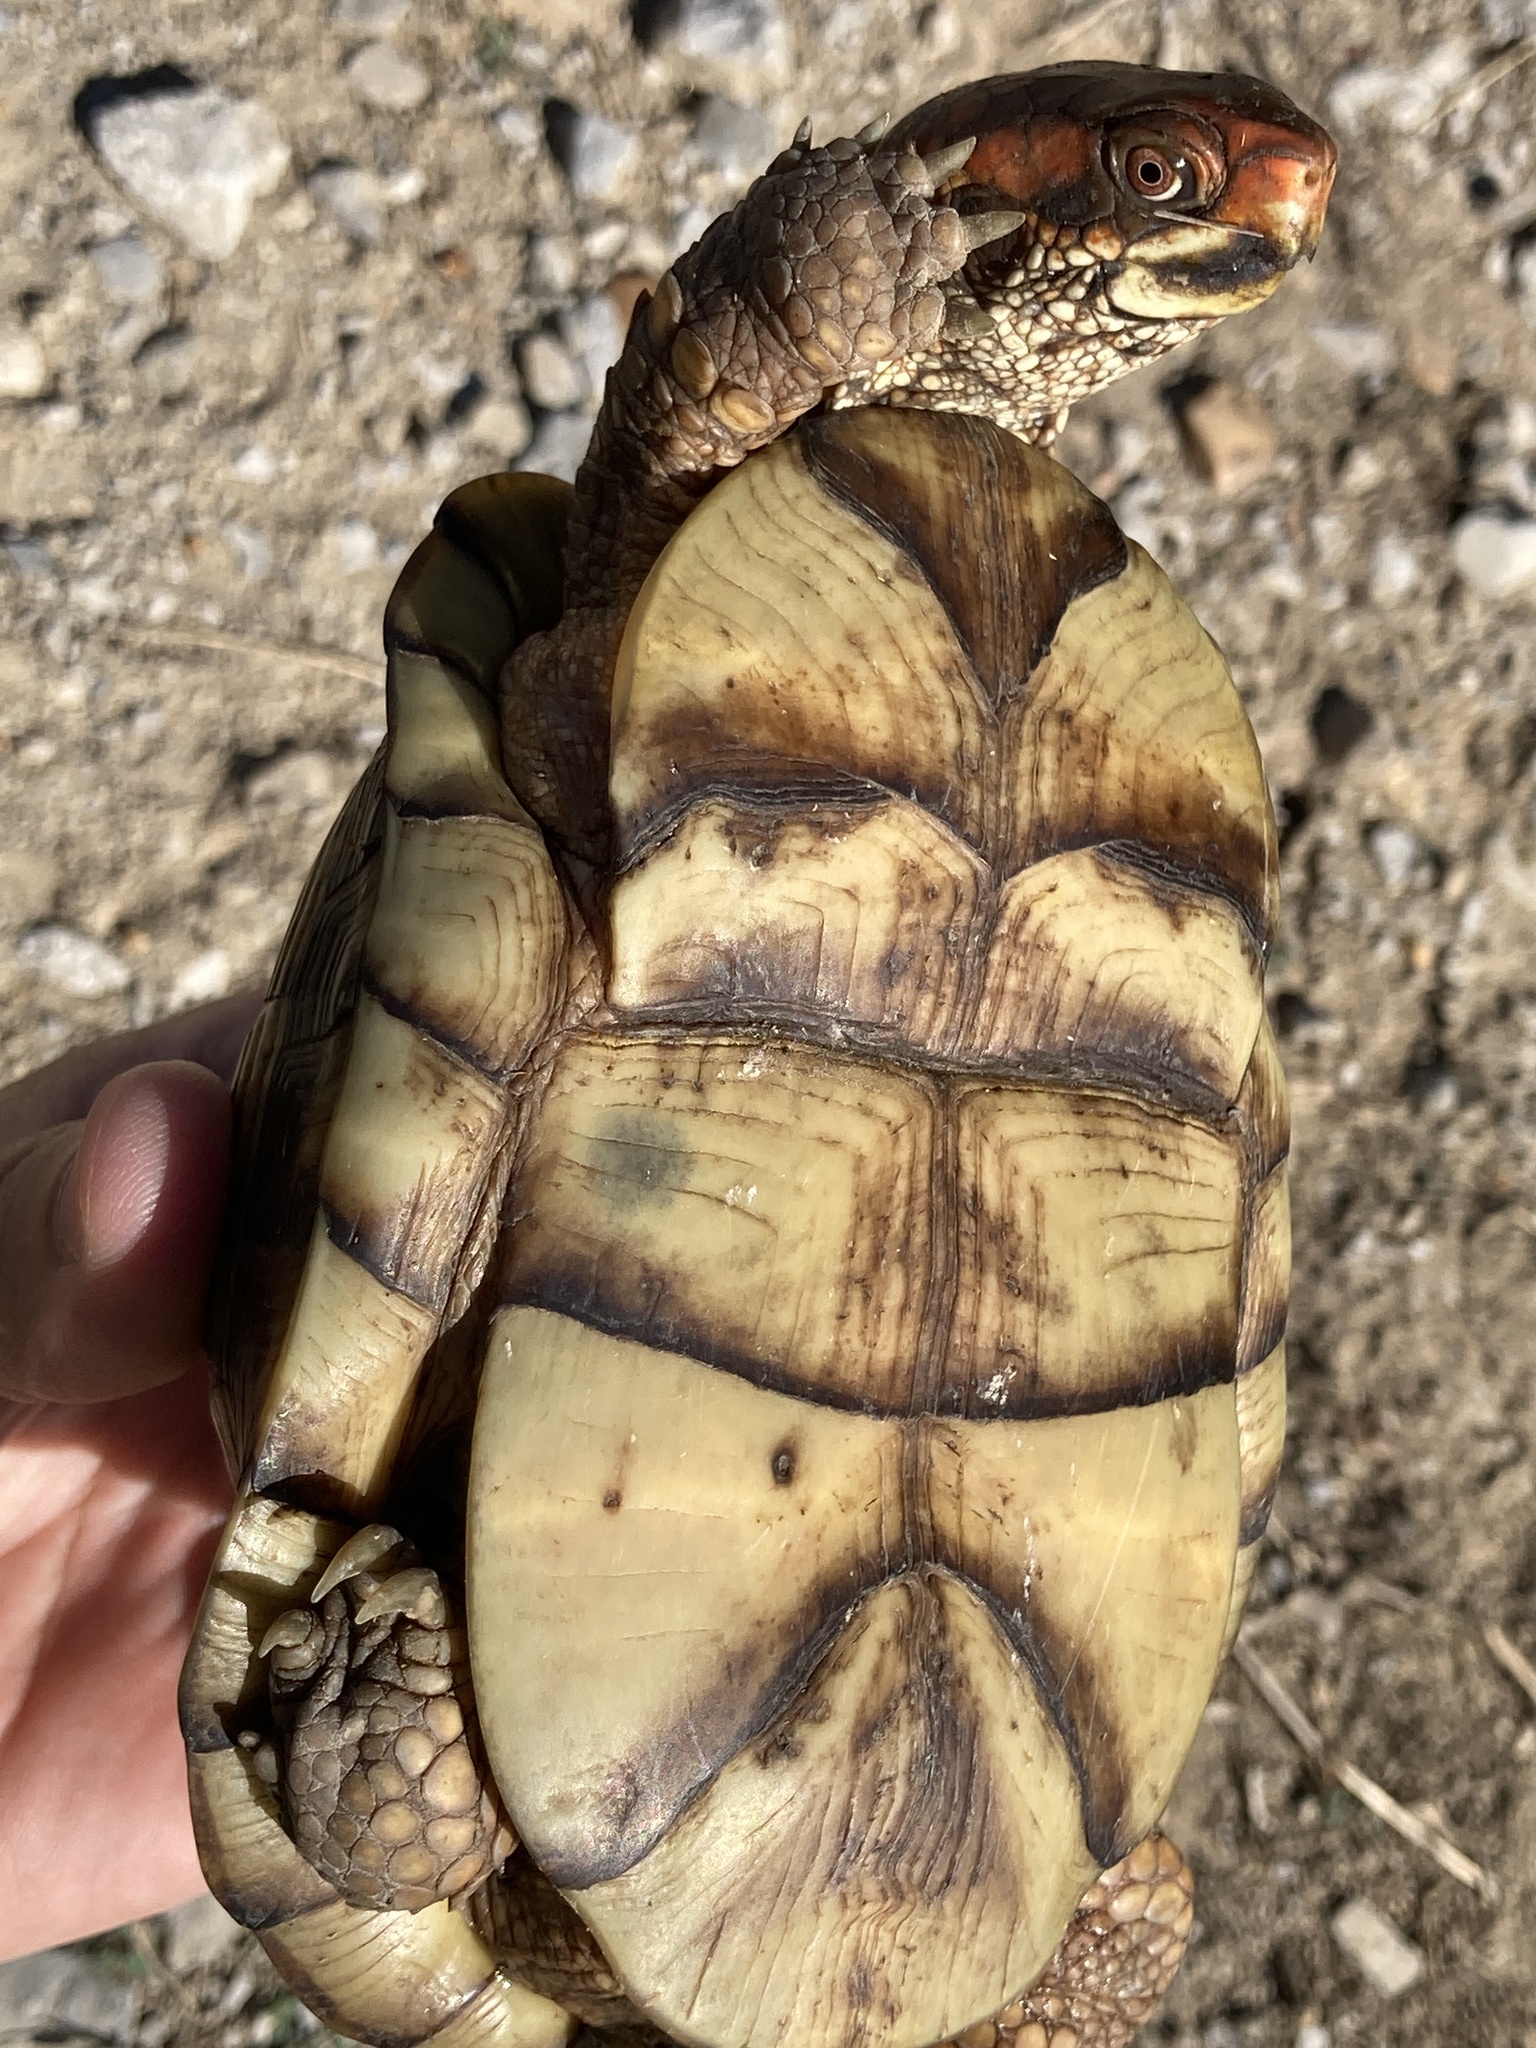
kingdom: Animalia
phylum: Chordata
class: Testudines
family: Emydidae
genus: Terrapene
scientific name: Terrapene carolina
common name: Common box turtle
